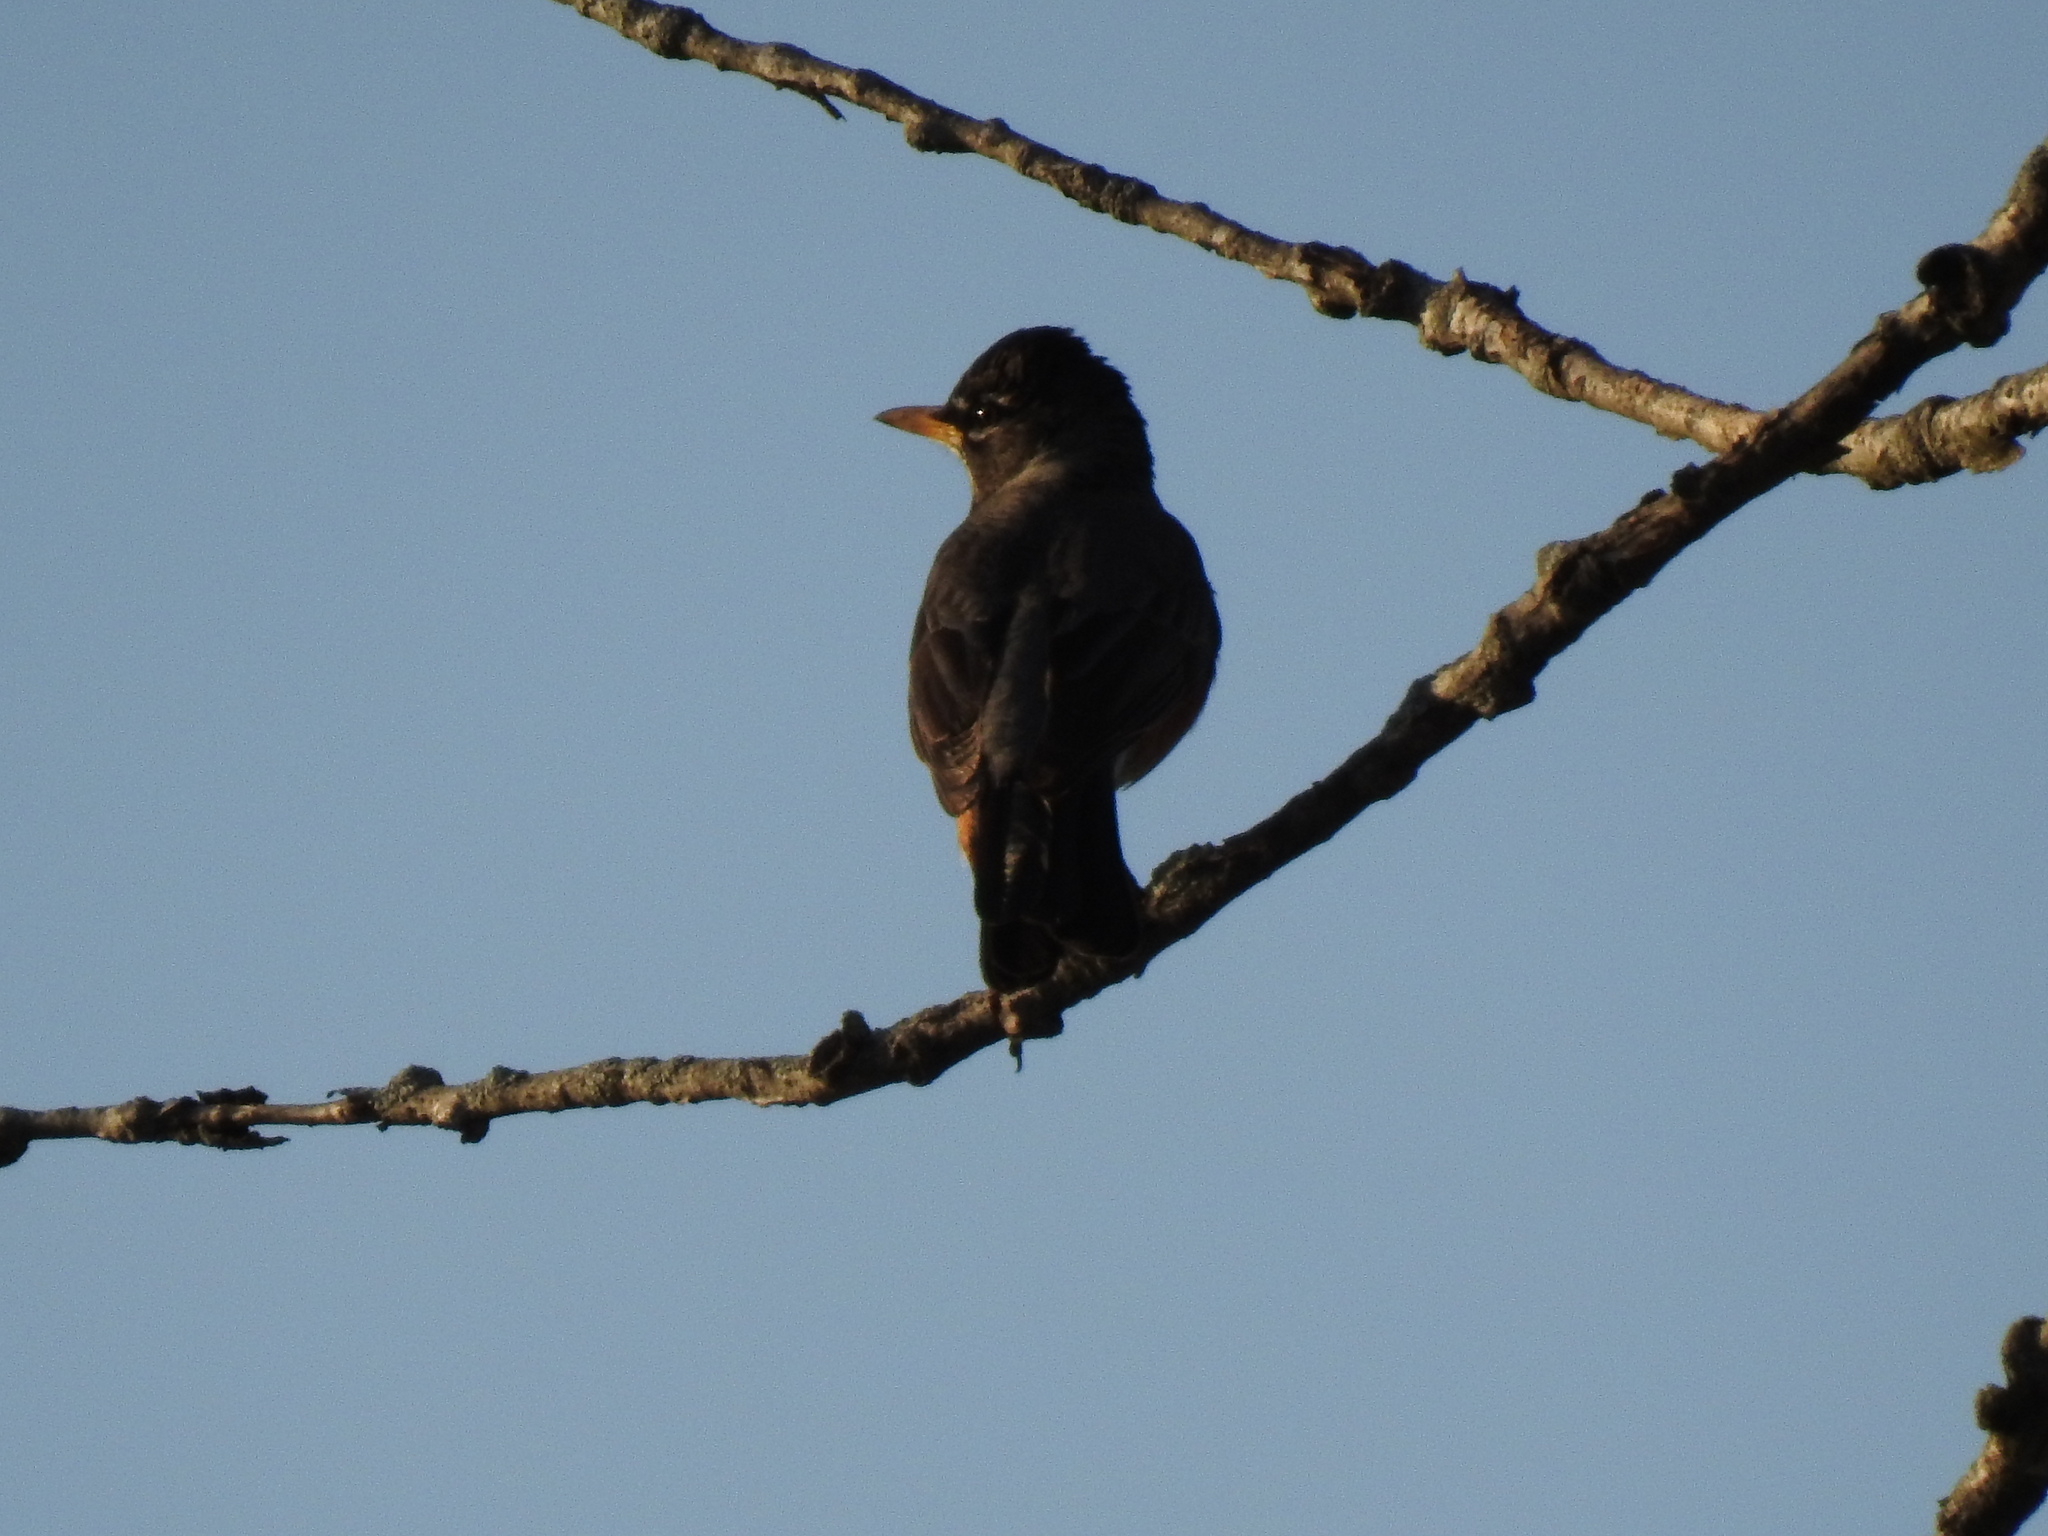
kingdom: Animalia
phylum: Chordata
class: Aves
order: Passeriformes
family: Turdidae
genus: Turdus
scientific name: Turdus migratorius
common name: American robin
